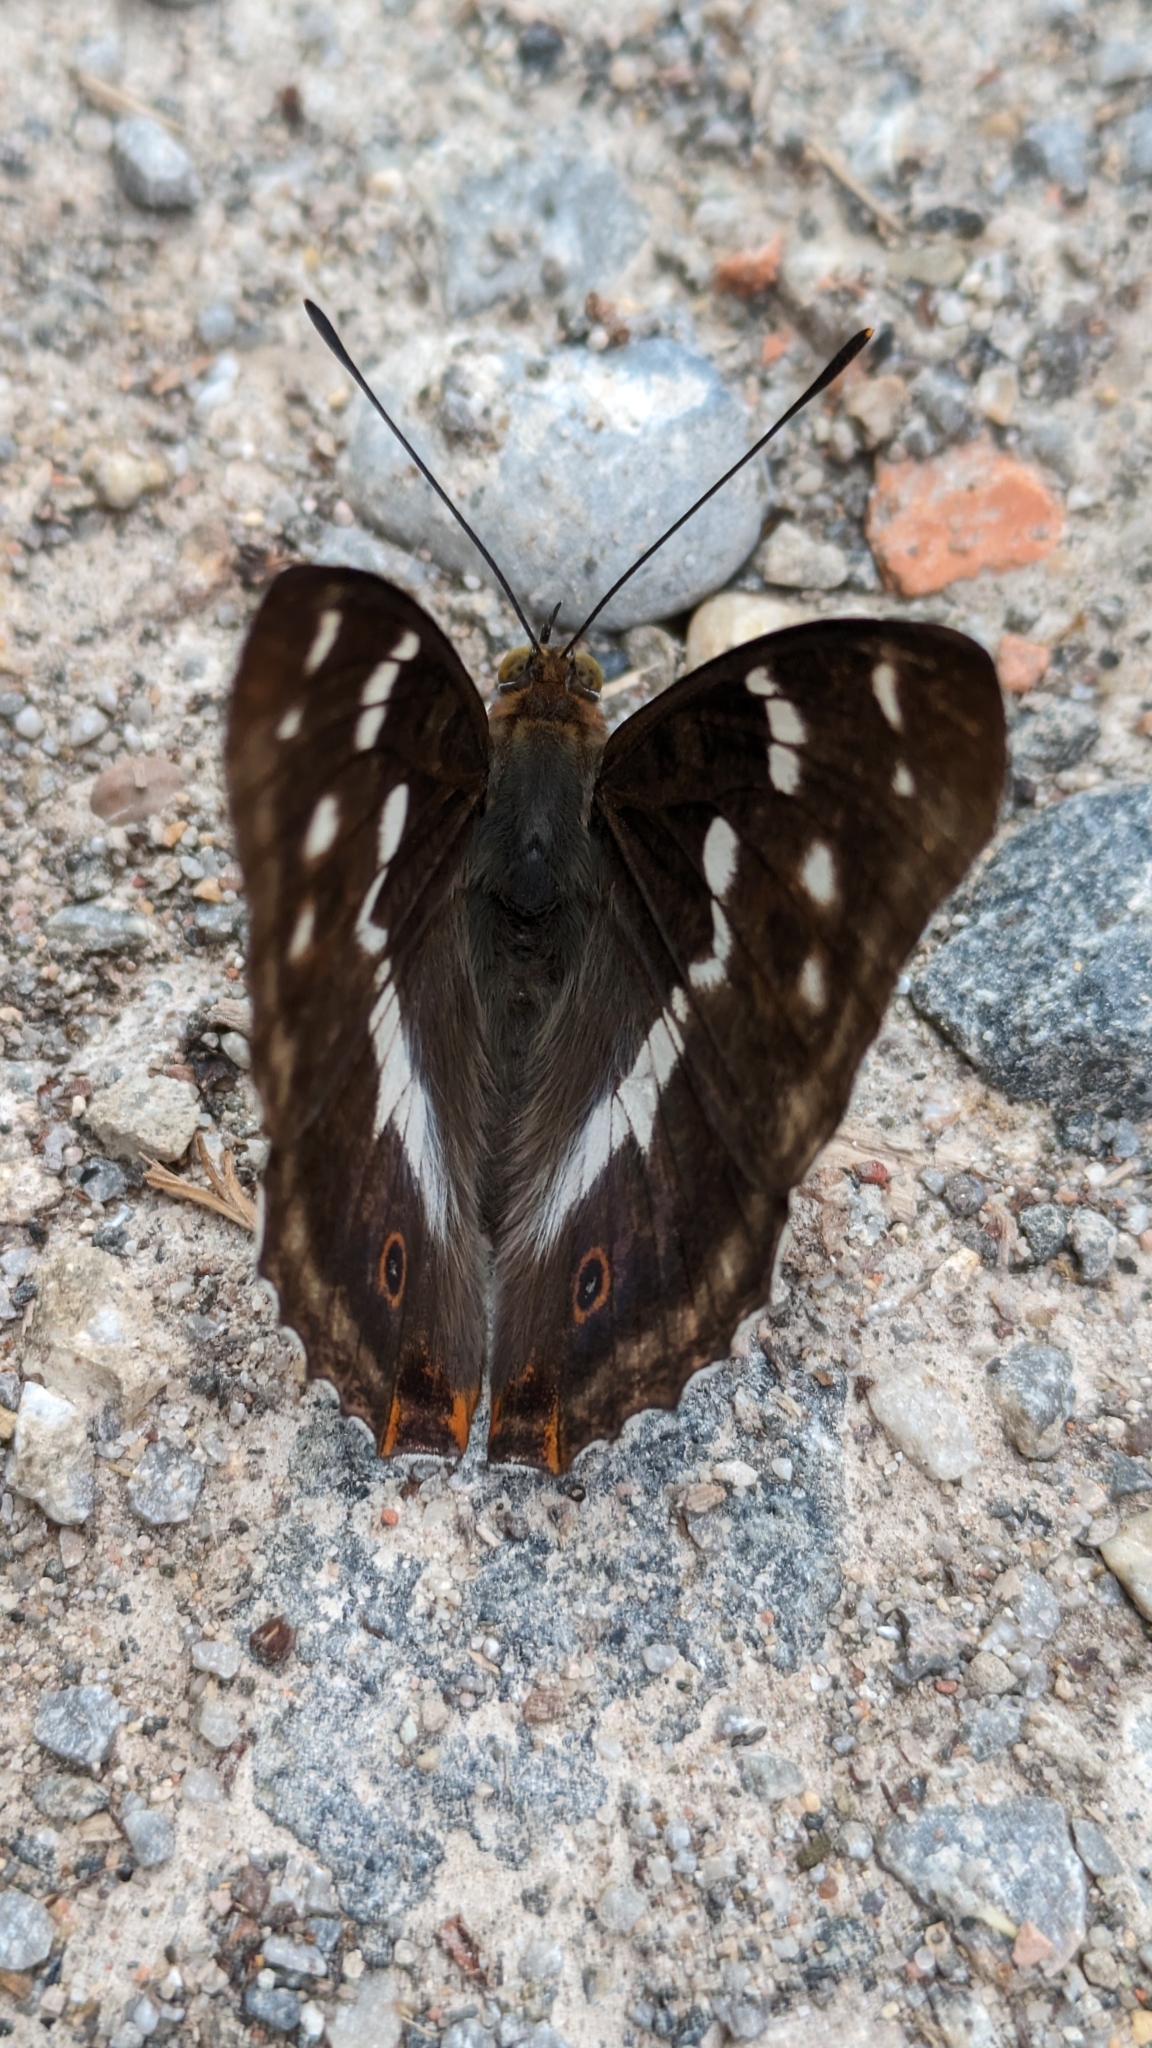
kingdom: Animalia
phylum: Arthropoda
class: Insecta
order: Lepidoptera
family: Nymphalidae
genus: Apatura
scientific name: Apatura iris
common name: Purple emperor
